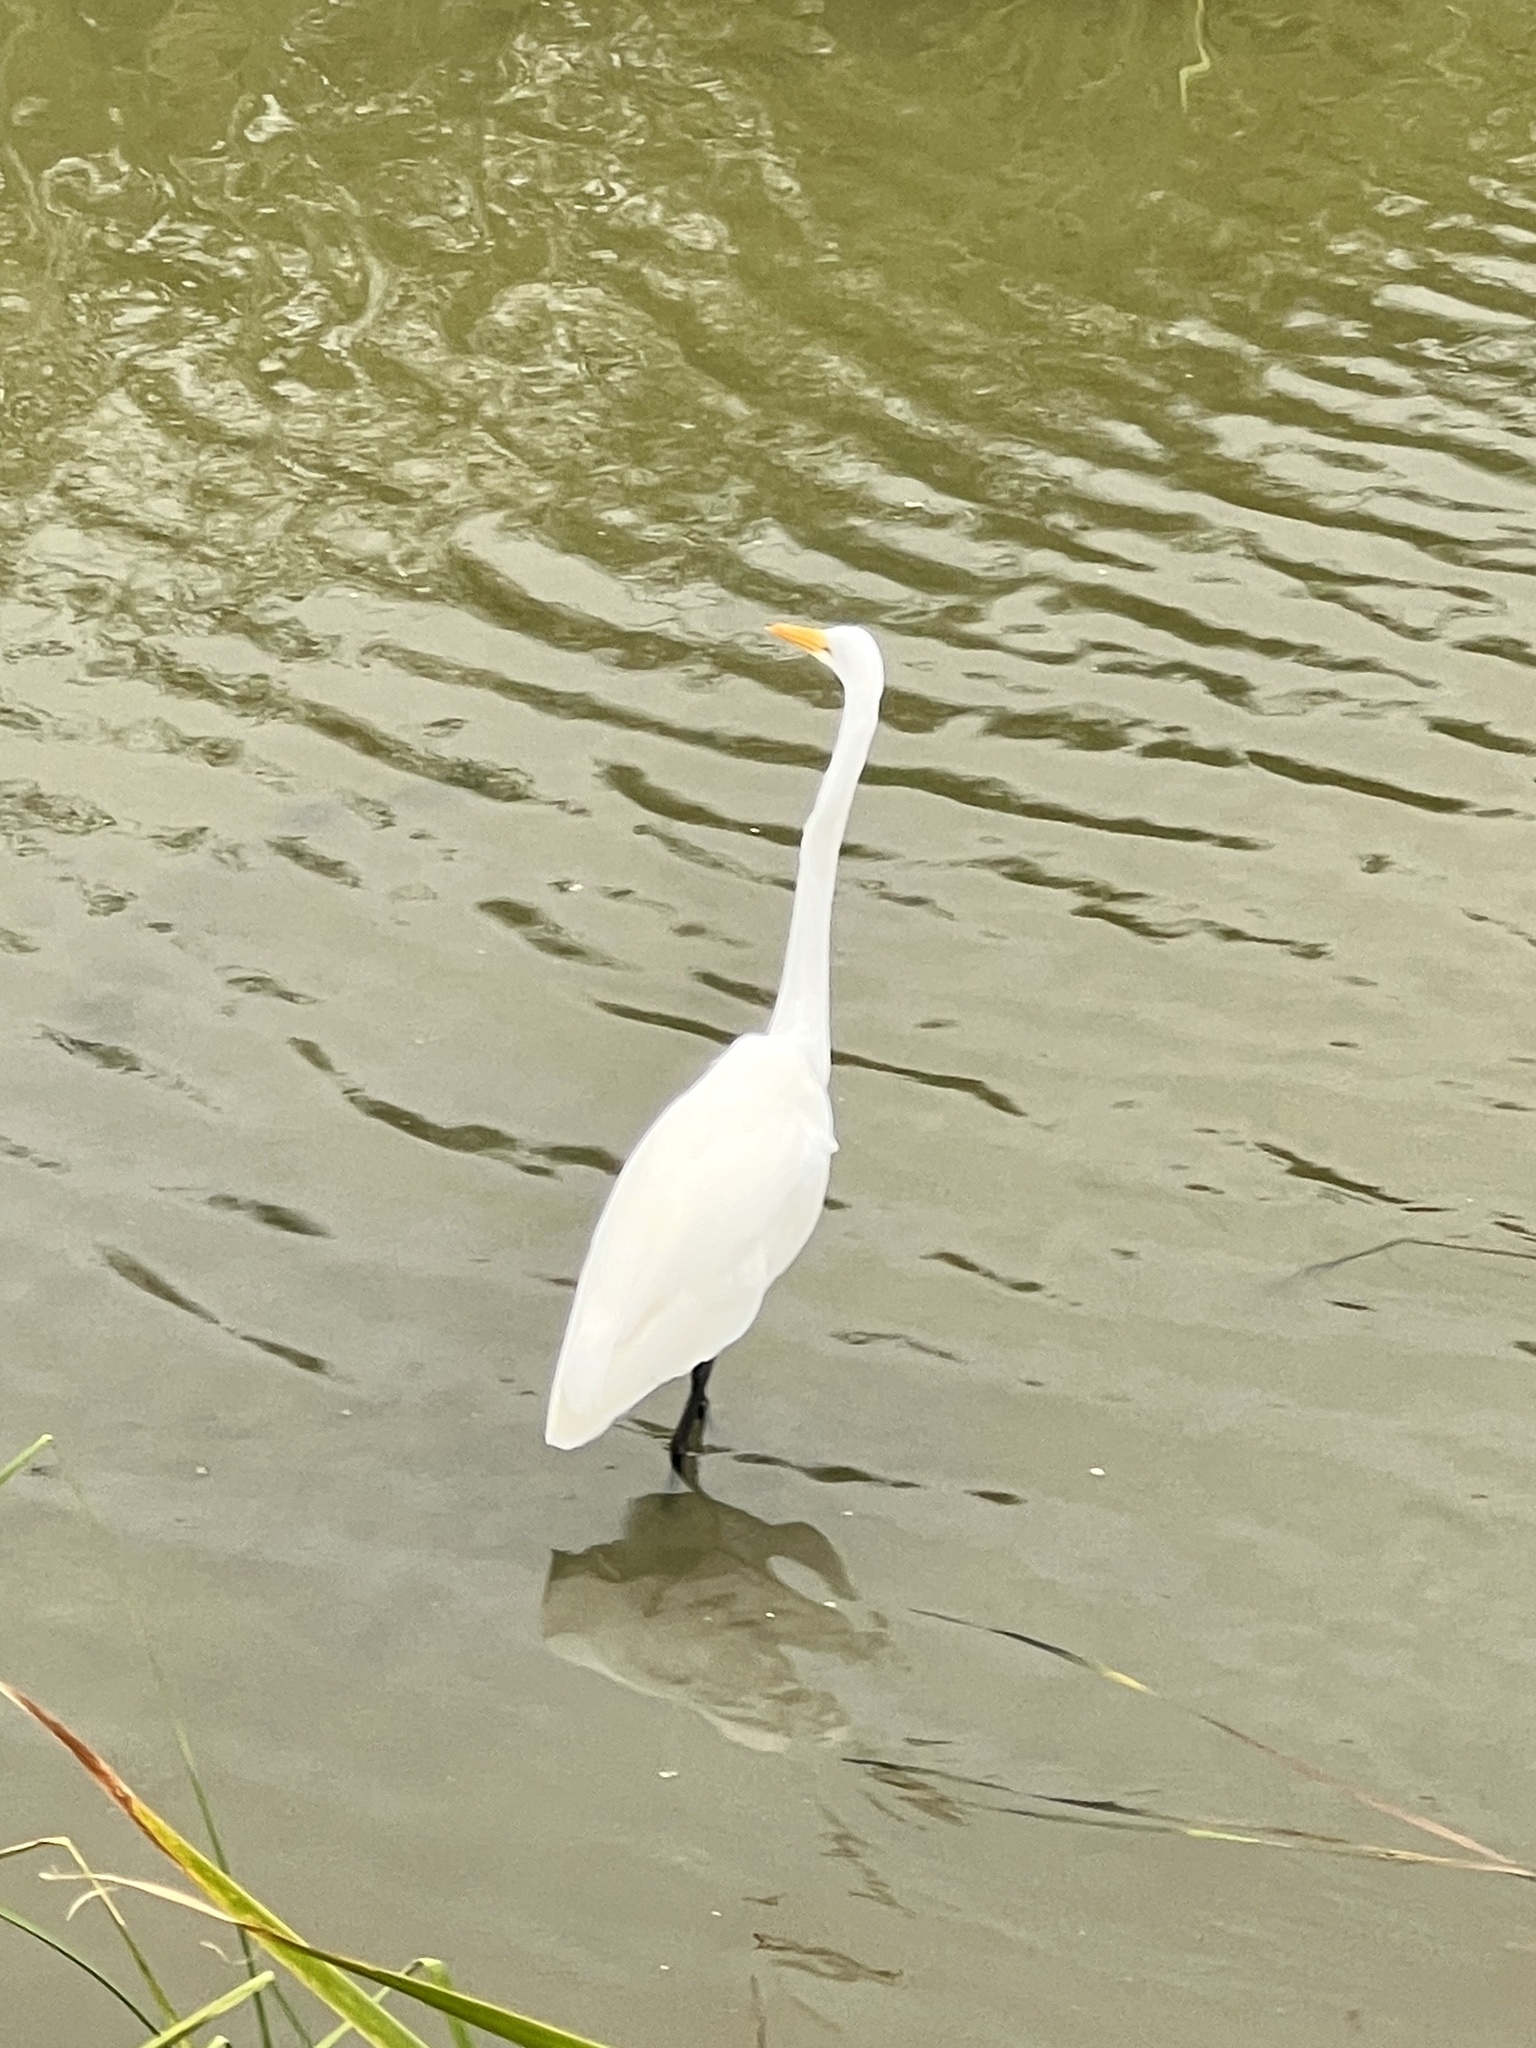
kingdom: Animalia
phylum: Chordata
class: Aves
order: Pelecaniformes
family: Ardeidae
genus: Ardea
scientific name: Ardea alba
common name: Great egret
